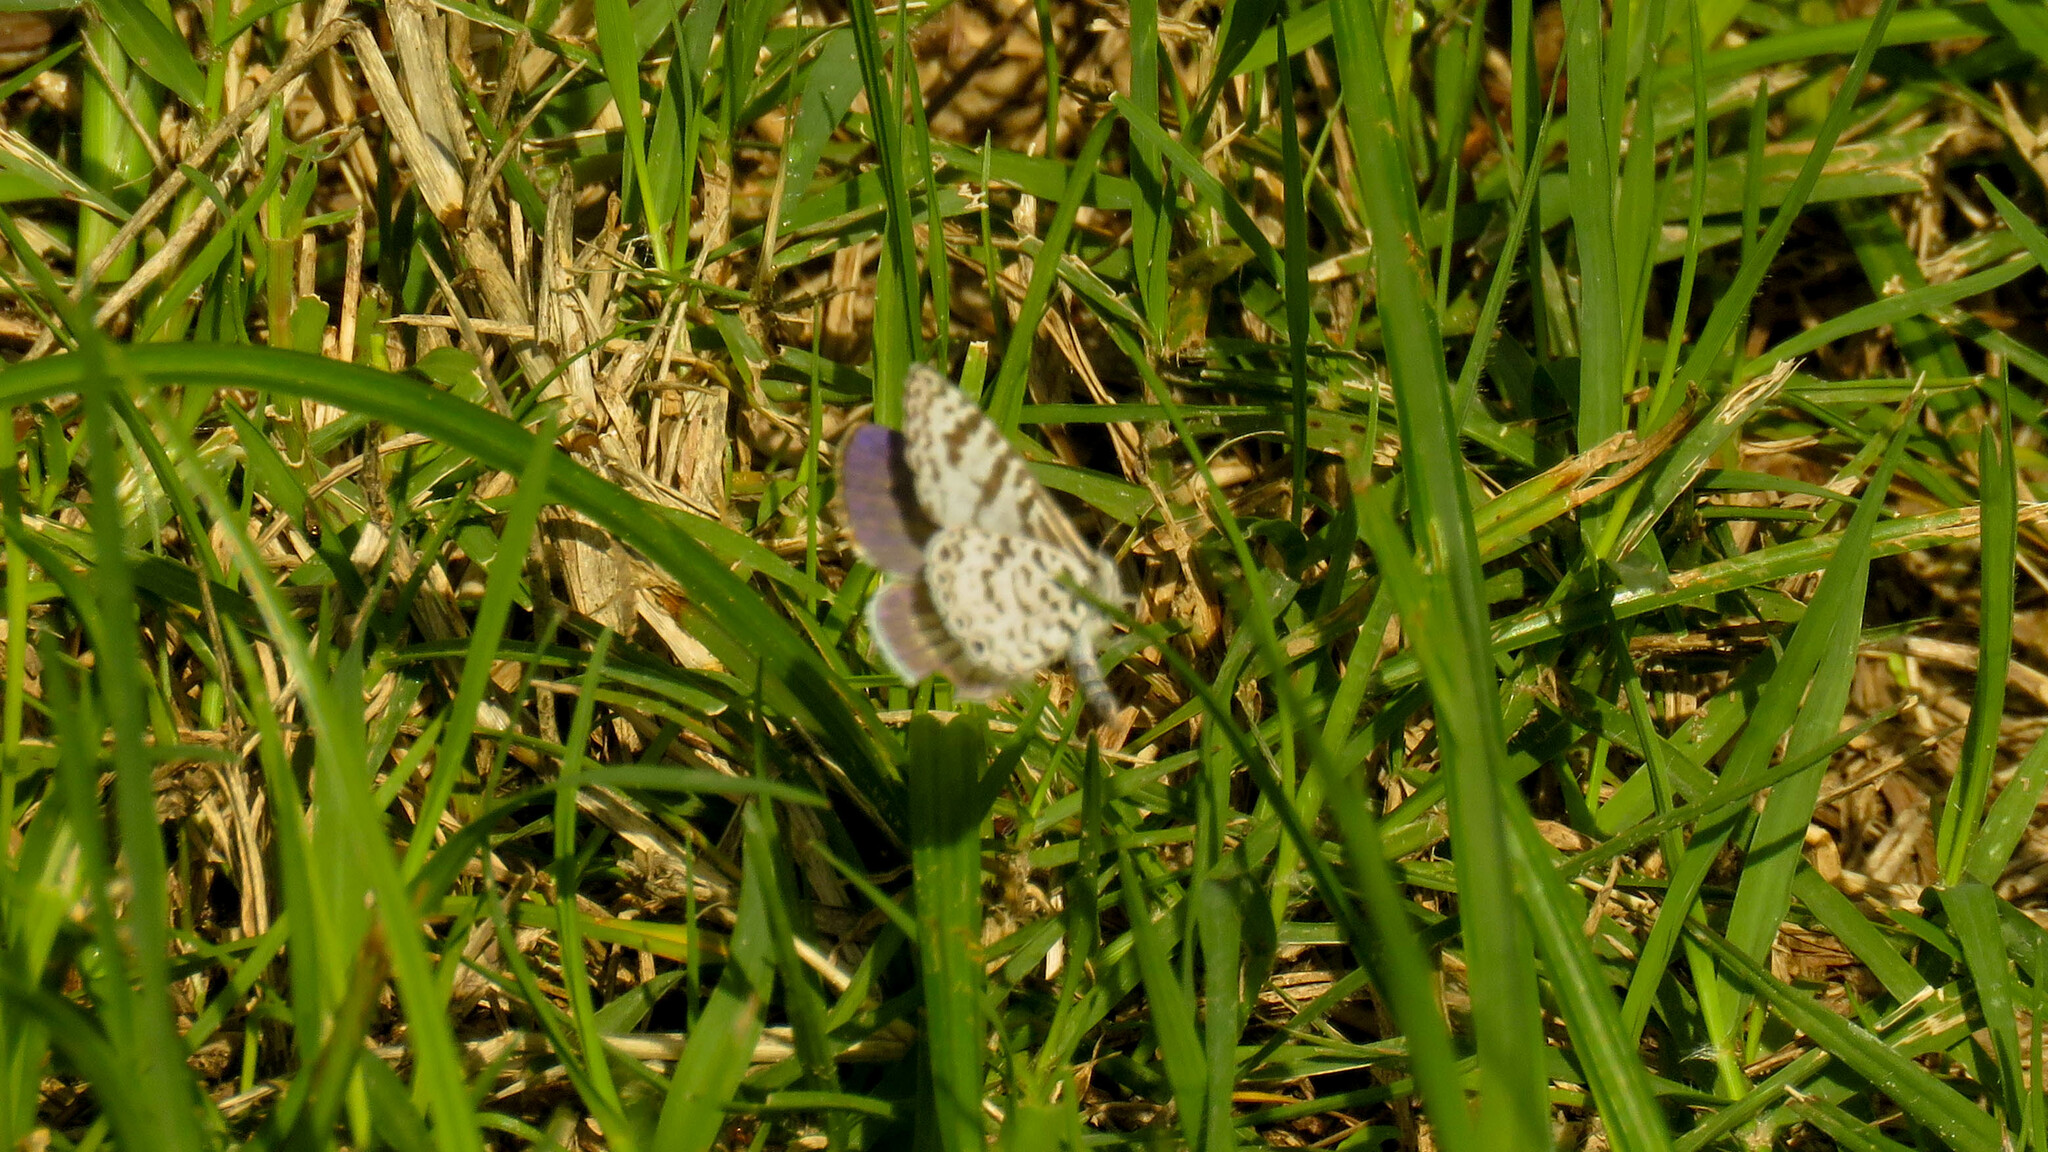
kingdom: Animalia
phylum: Arthropoda
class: Insecta
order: Lepidoptera
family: Lycaenidae
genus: Leptotes
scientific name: Leptotes cassius
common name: Cassius blue
